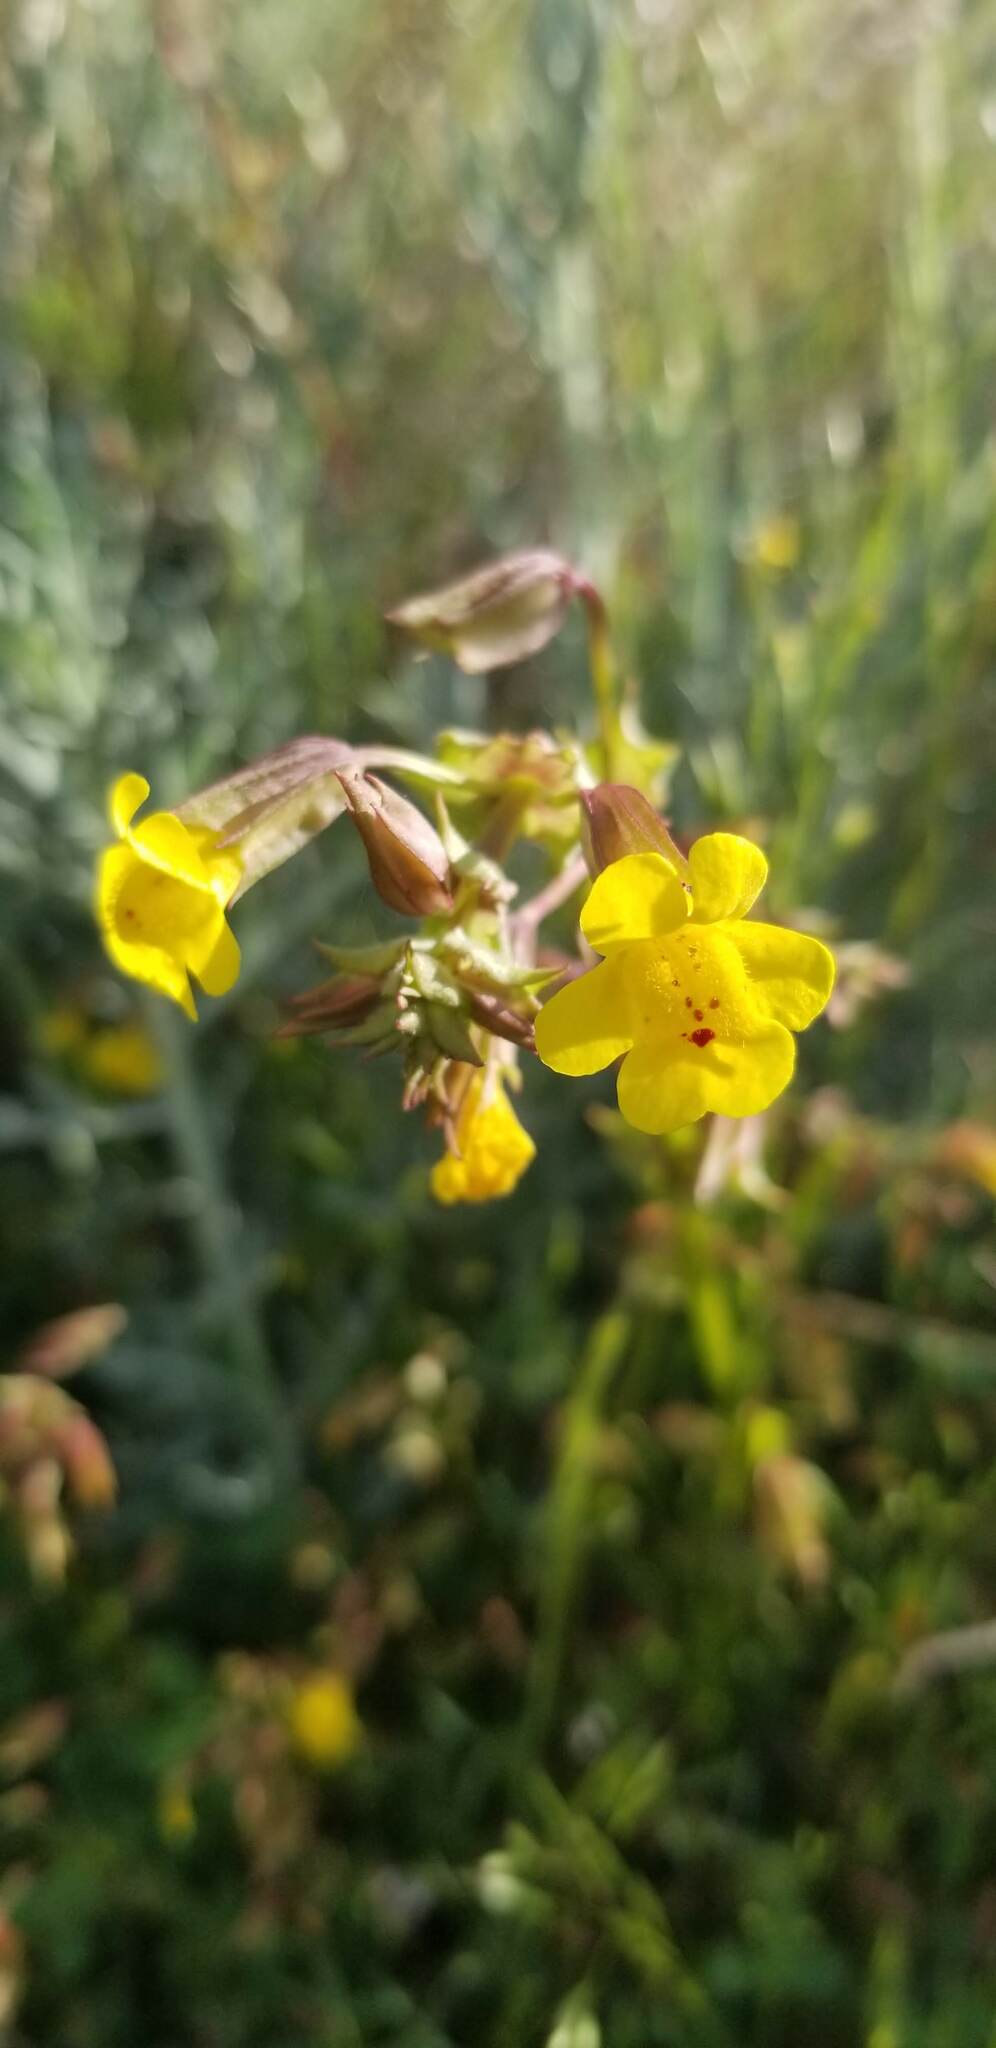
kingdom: Plantae
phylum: Tracheophyta
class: Magnoliopsida
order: Lamiales
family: Phrymaceae
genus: Erythranthe
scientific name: Erythranthe nasuta
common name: Sooke monkeyflower
